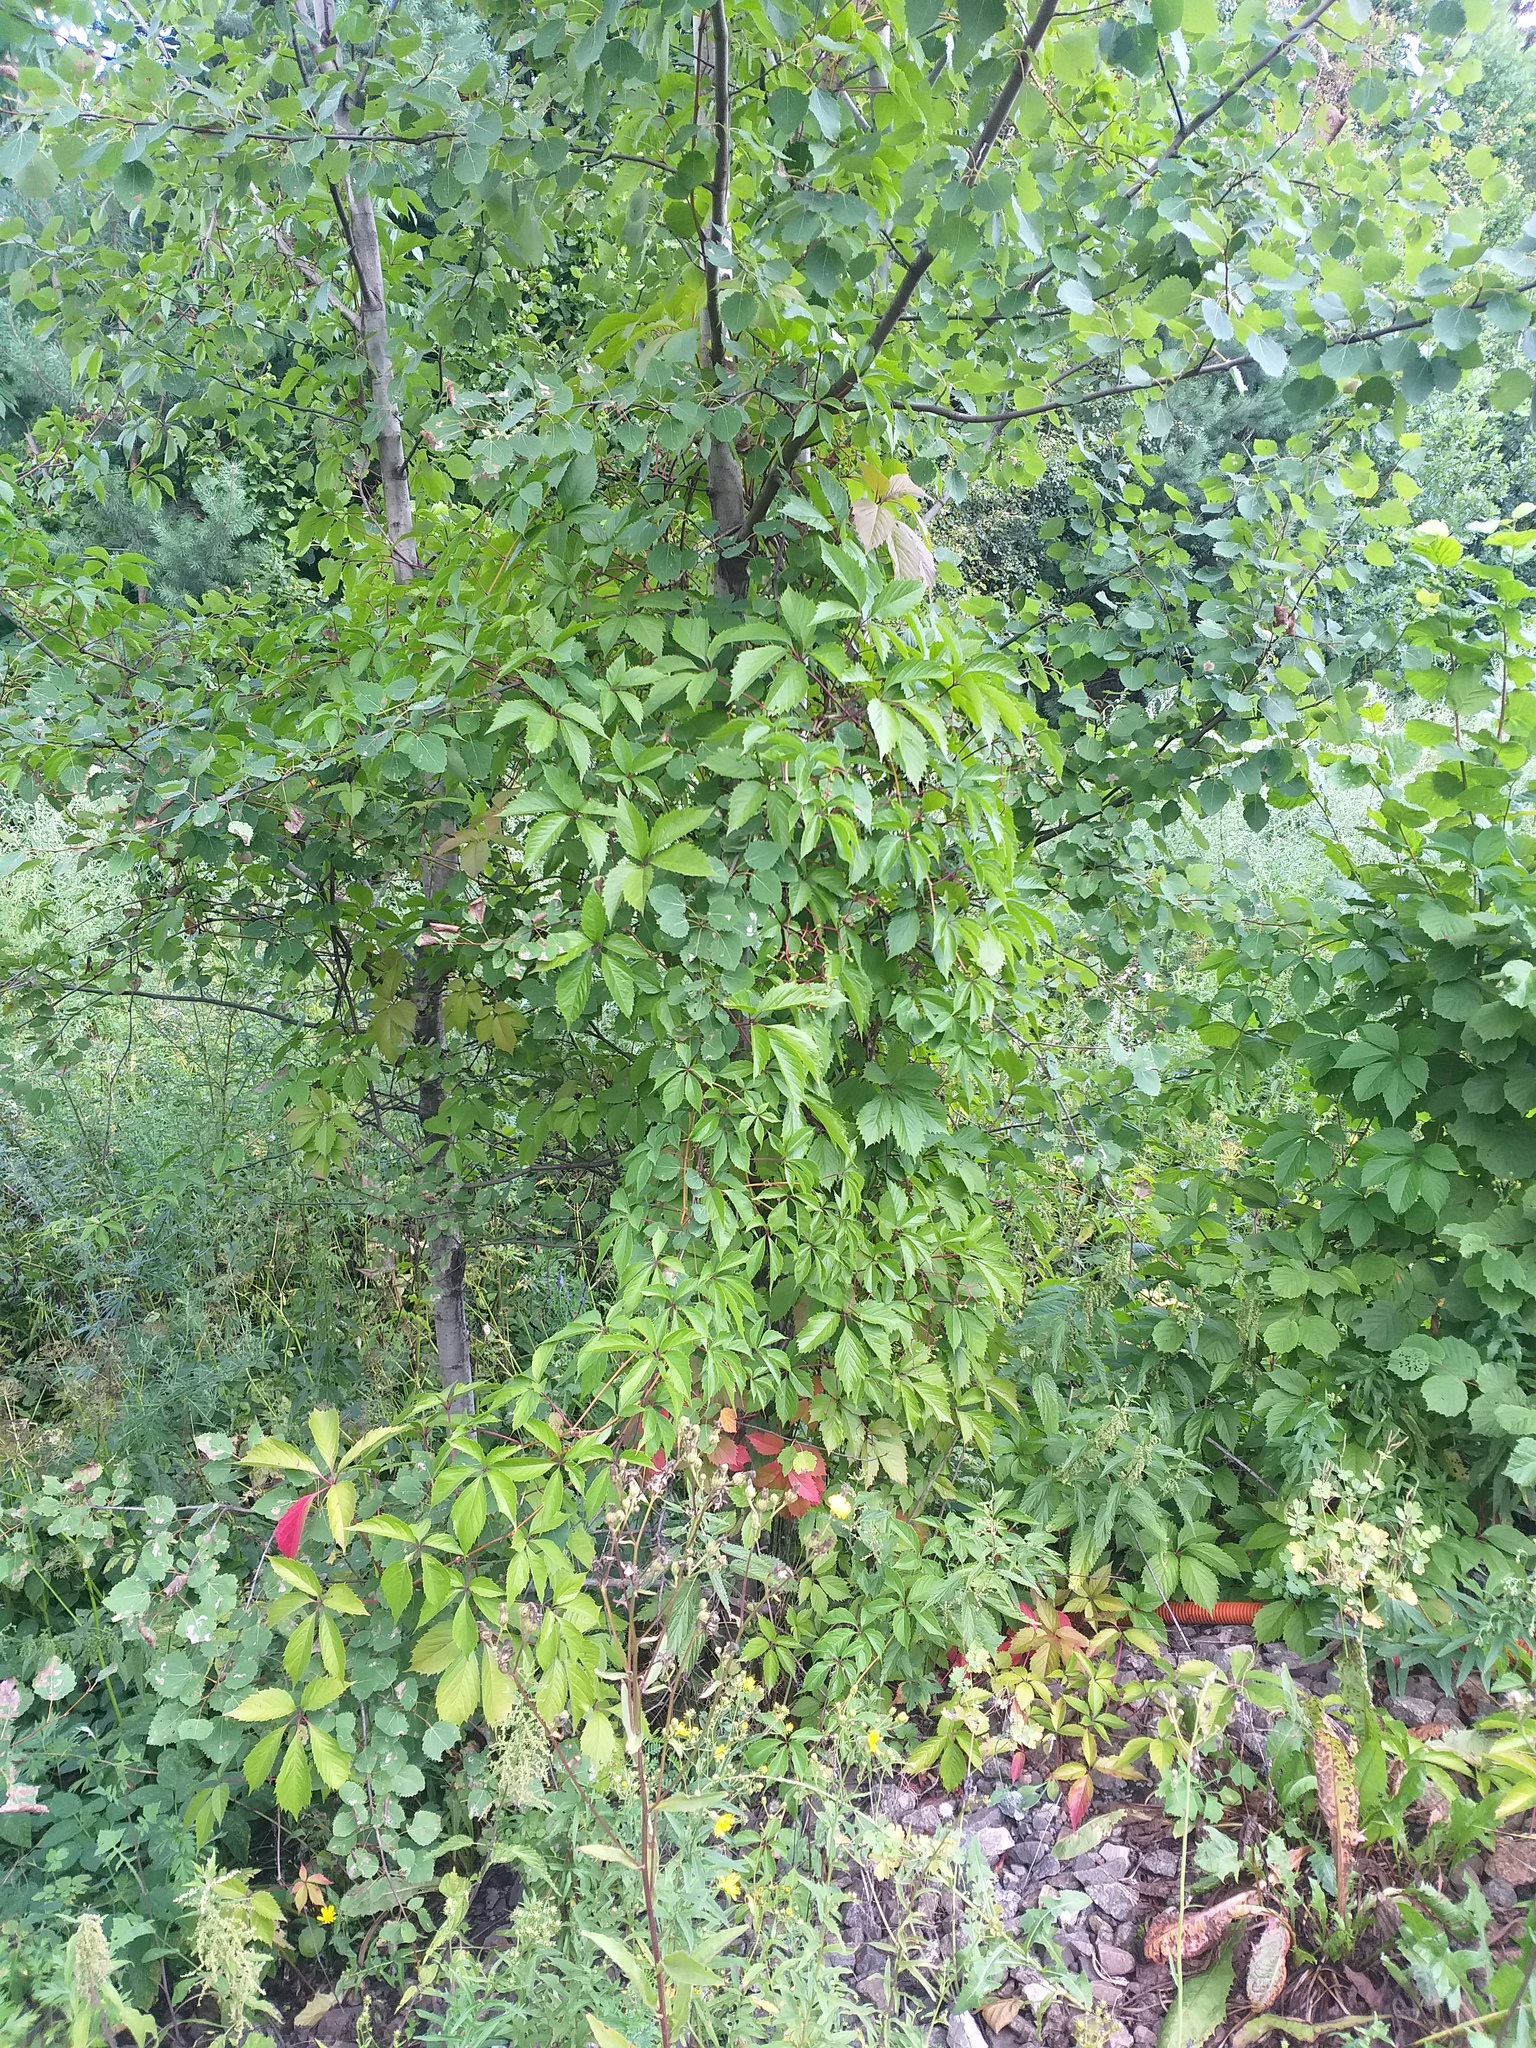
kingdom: Plantae
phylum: Tracheophyta
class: Magnoliopsida
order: Vitales
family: Vitaceae
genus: Parthenocissus
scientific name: Parthenocissus inserta
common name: False virginia-creeper
